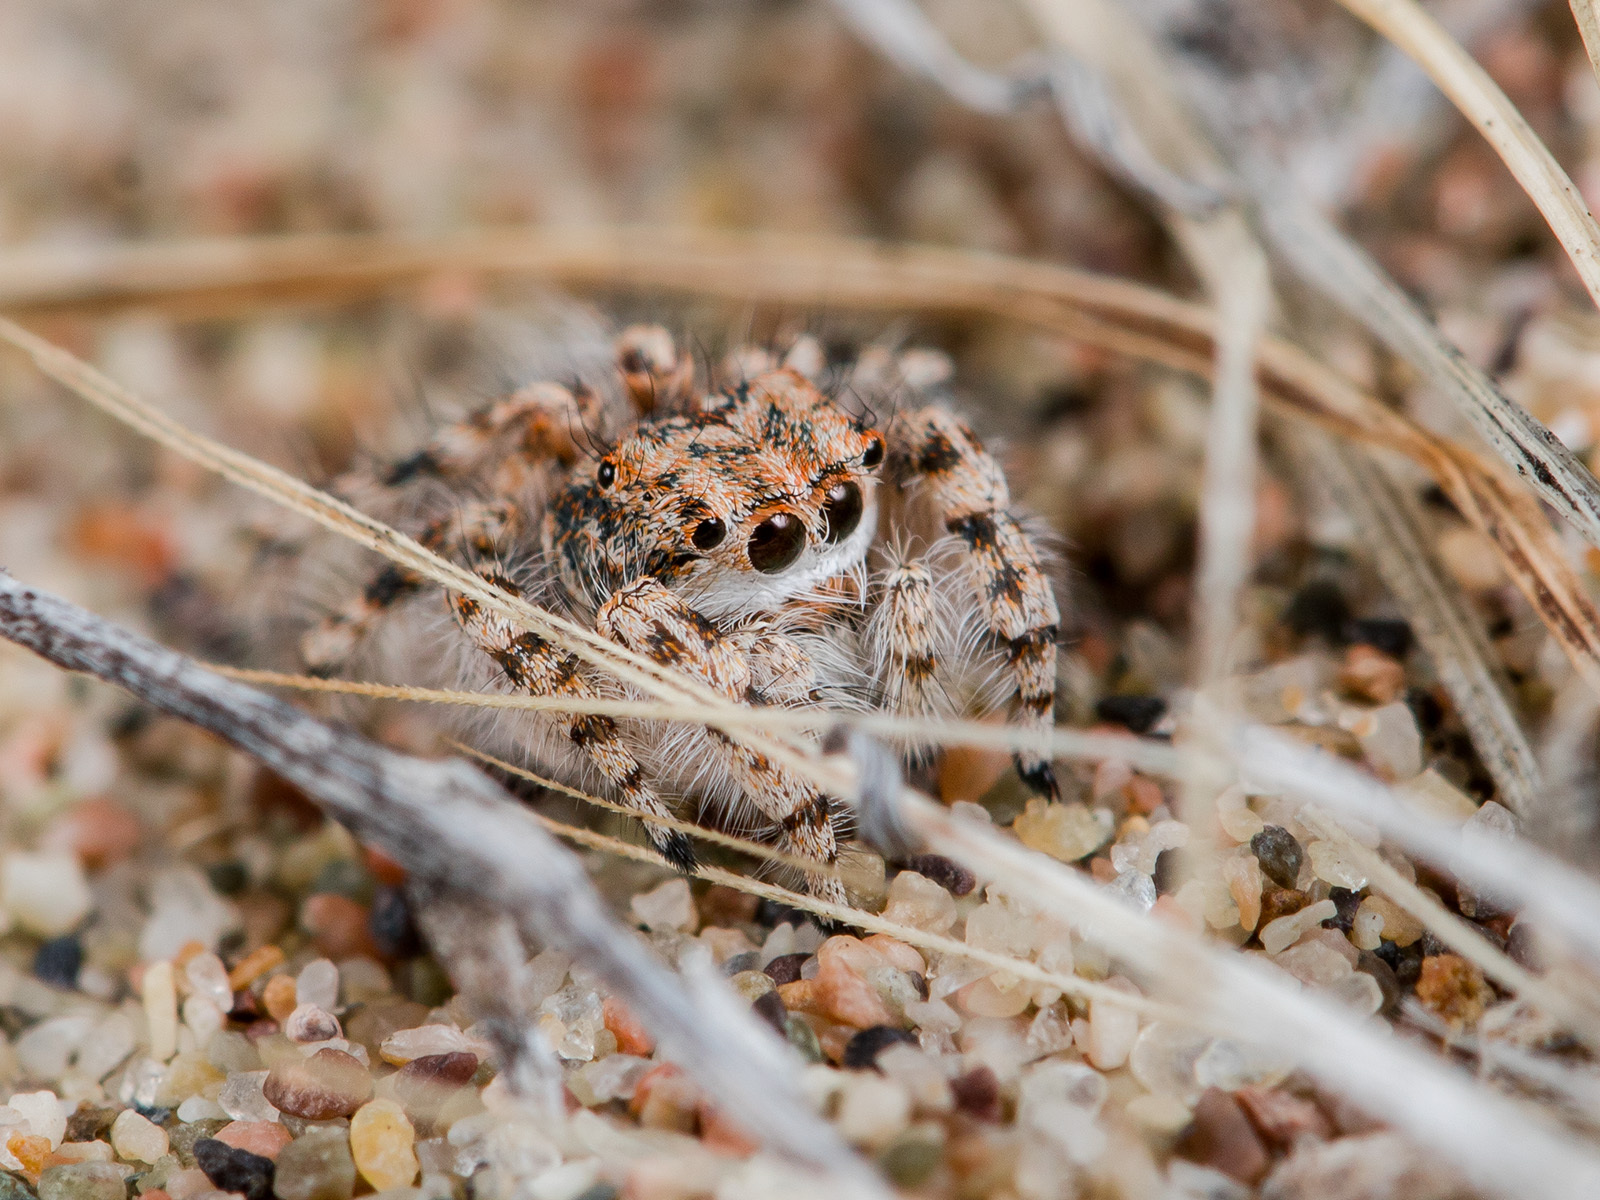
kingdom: Animalia
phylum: Arthropoda
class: Arachnida
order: Araneae
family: Salticidae
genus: Yllenus
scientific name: Yllenus uiguricus
